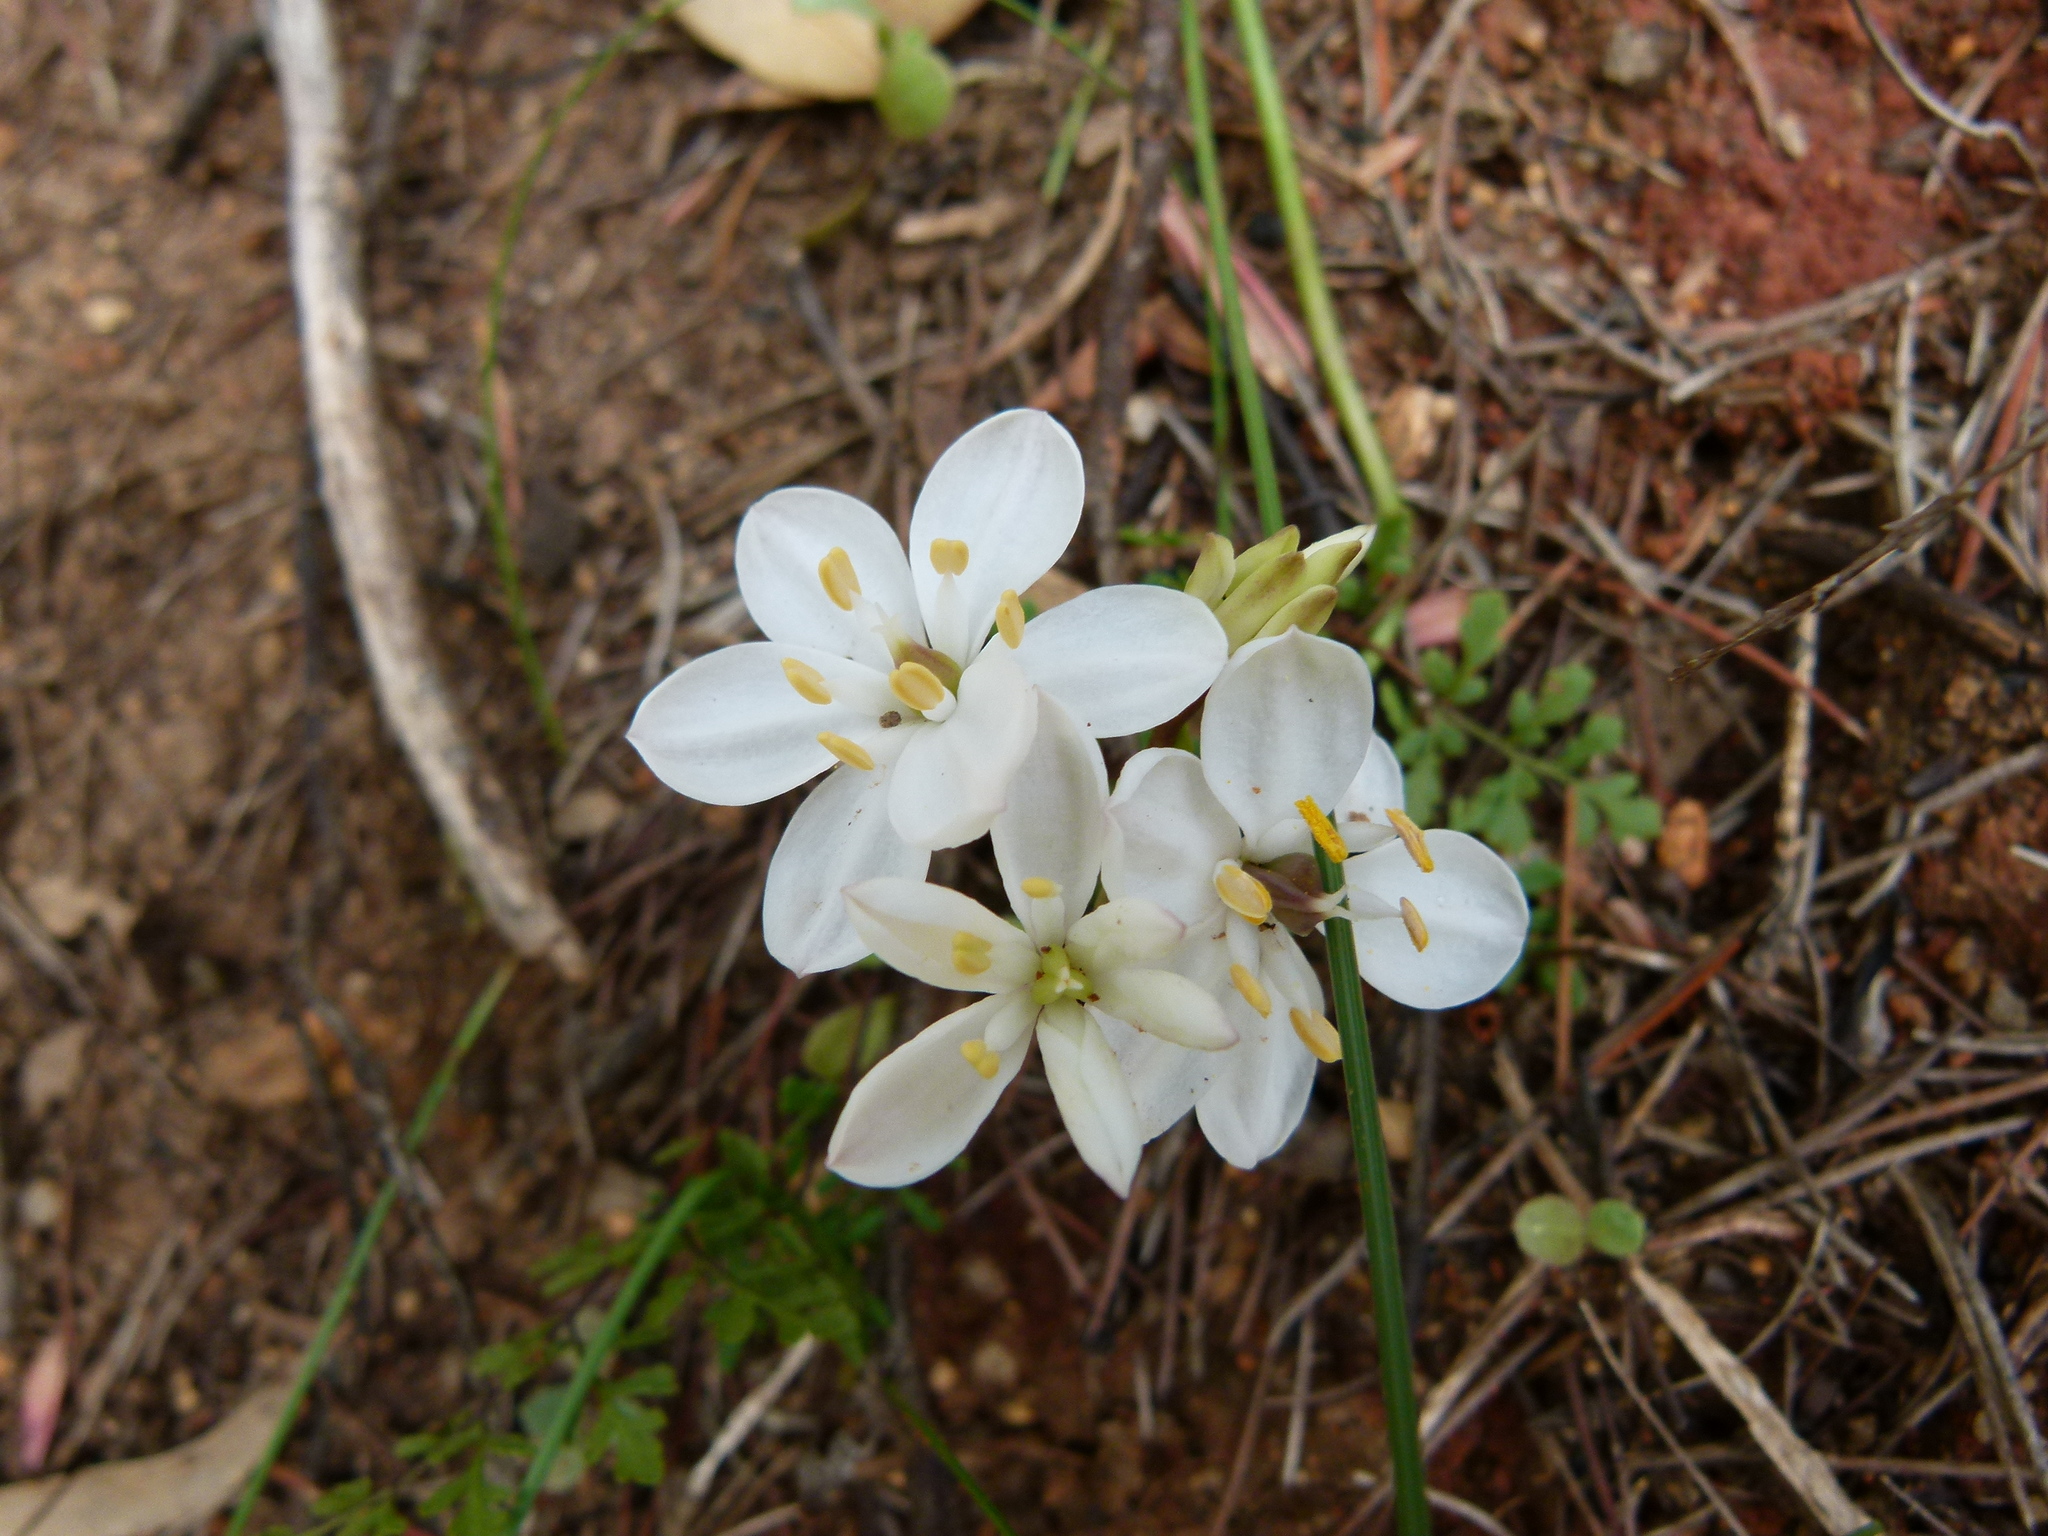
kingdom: Plantae
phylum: Tracheophyta
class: Liliopsida
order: Liliales
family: Colchicaceae
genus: Burchardia
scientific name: Burchardia congesta
